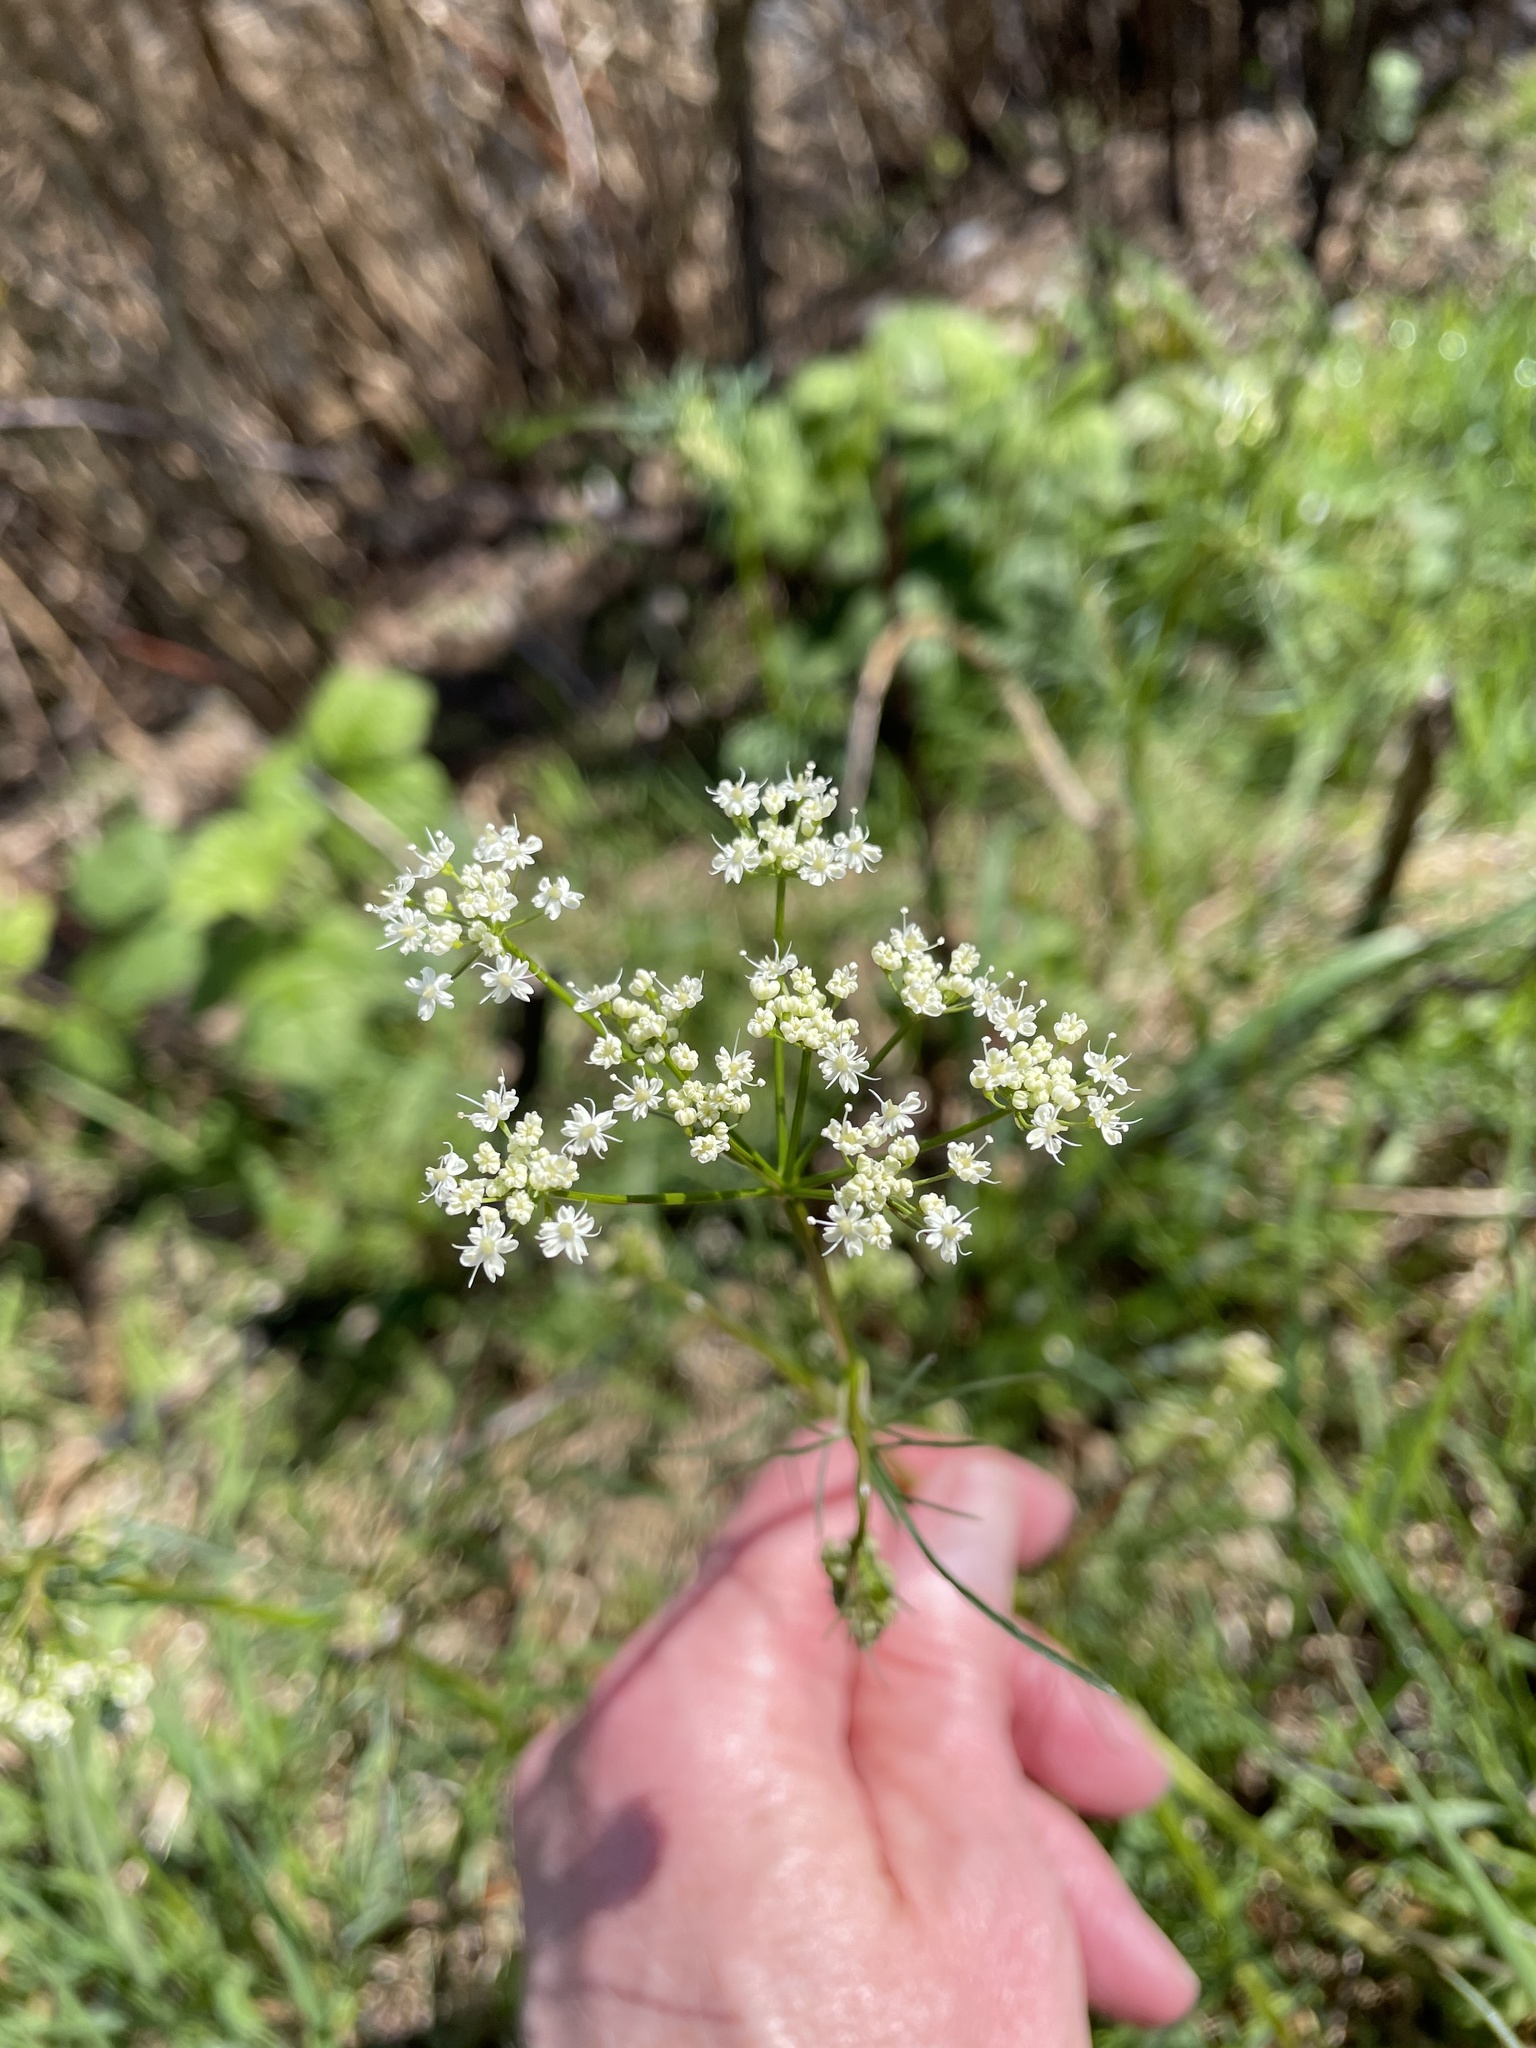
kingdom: Plantae
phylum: Tracheophyta
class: Magnoliopsida
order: Apiales
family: Apiaceae
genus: Conopodium
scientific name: Conopodium majus
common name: Pignut
